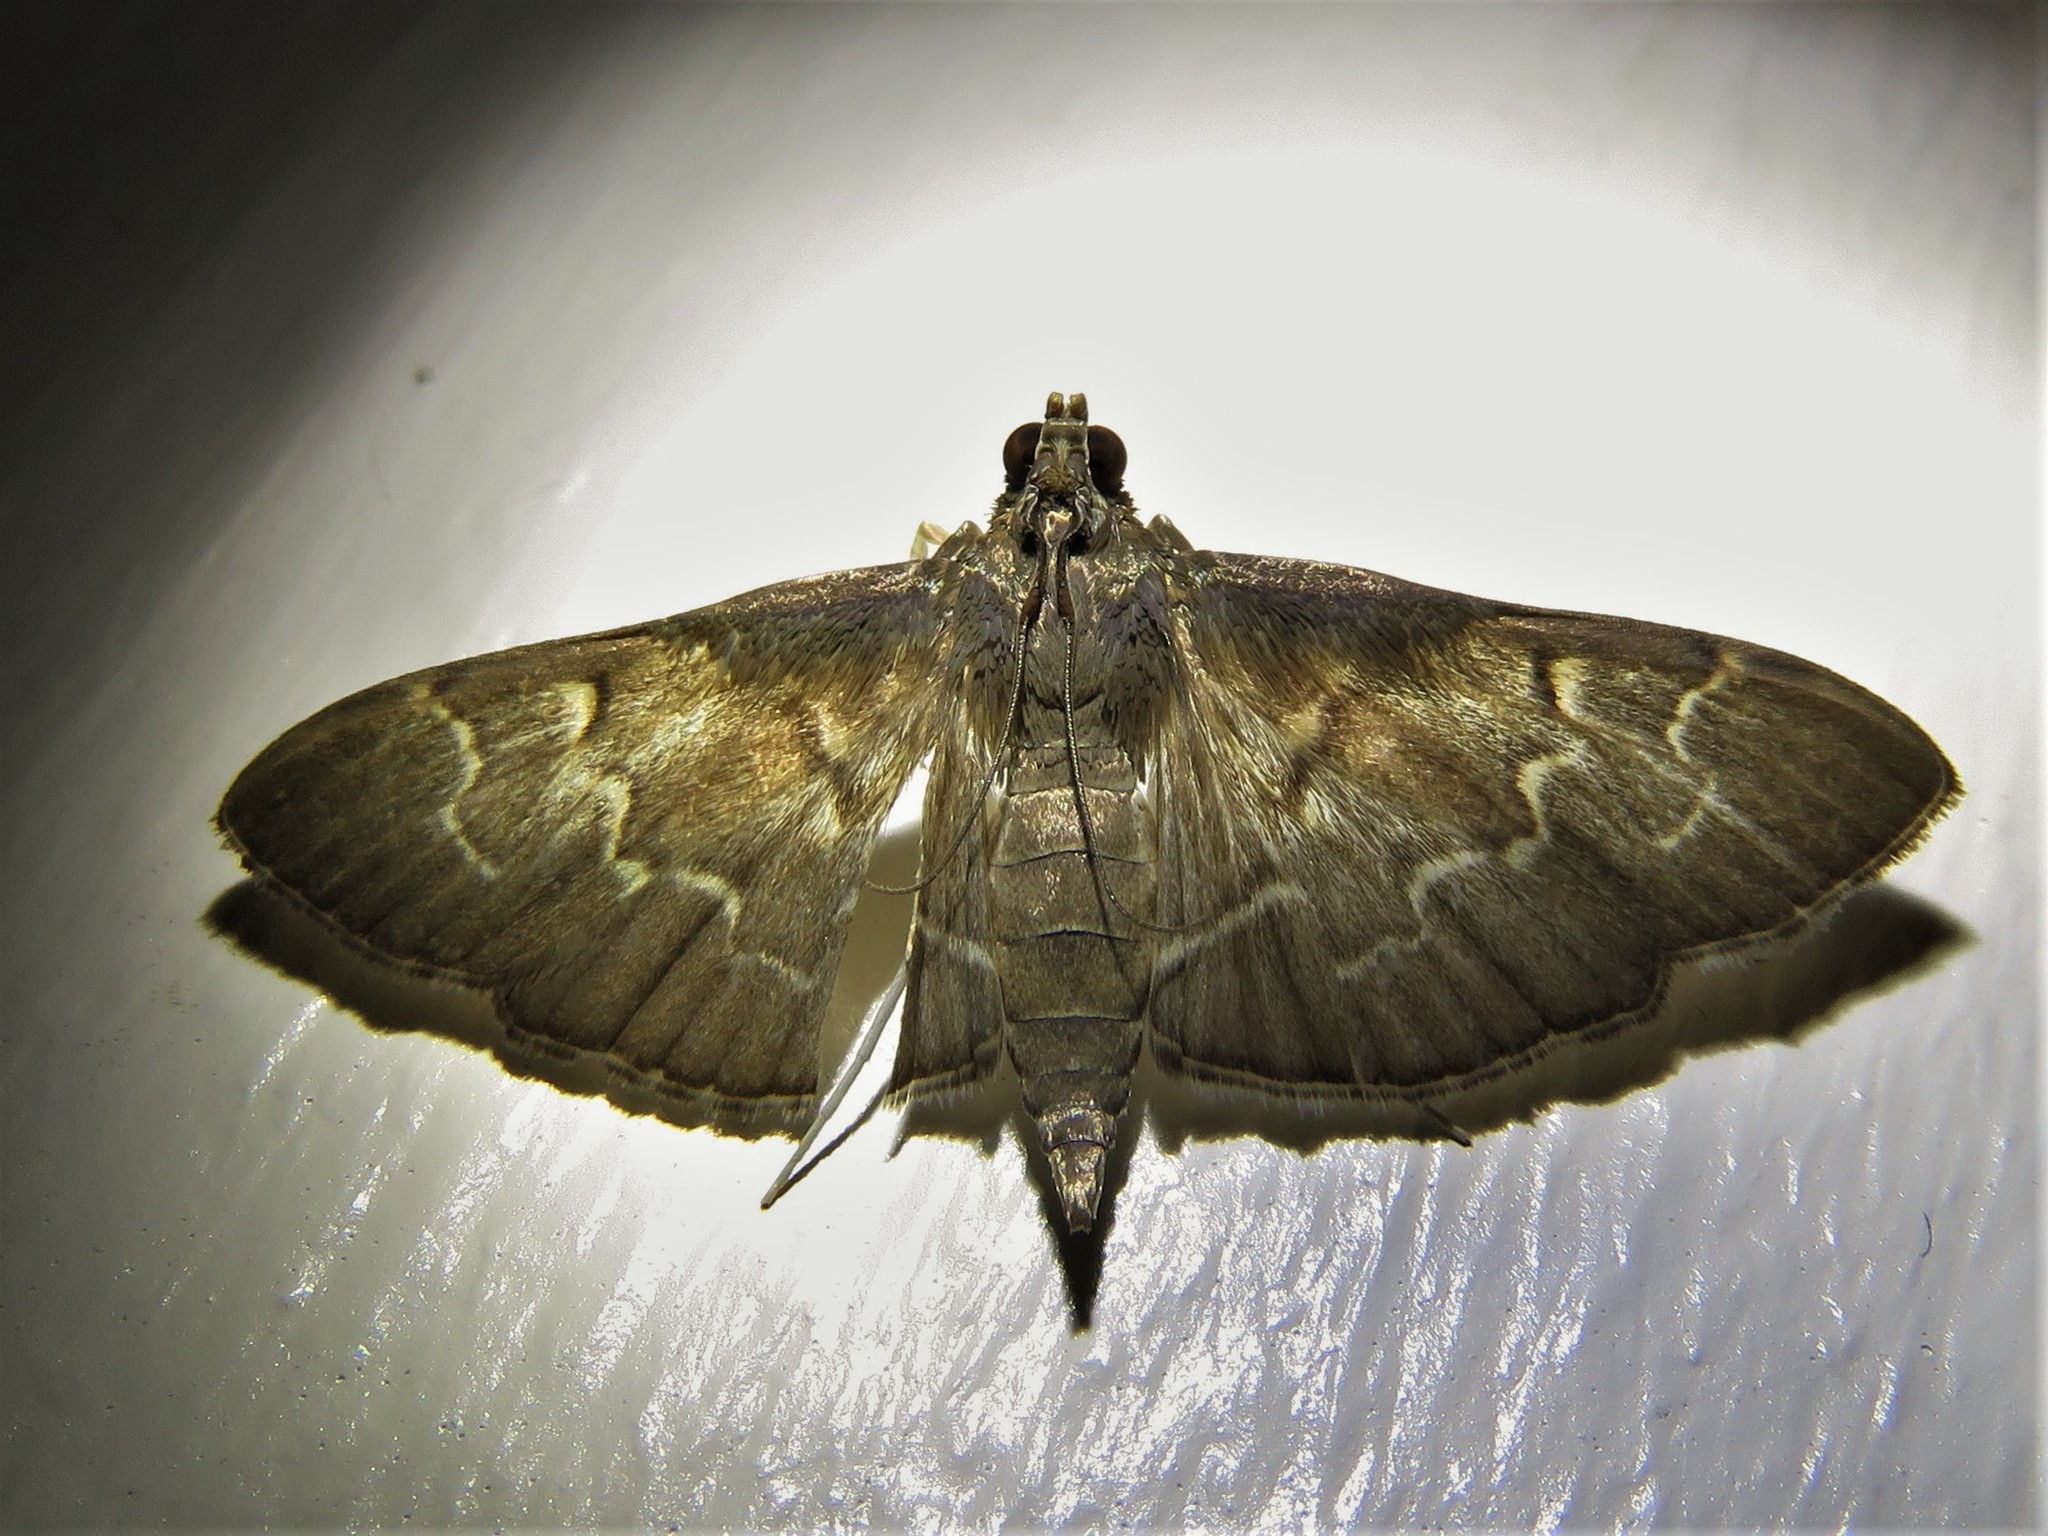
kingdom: Animalia
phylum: Arthropoda
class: Insecta
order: Lepidoptera
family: Crambidae
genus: Pilocrocis
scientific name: Pilocrocis ramentalis
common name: Scraped pilocrocis
